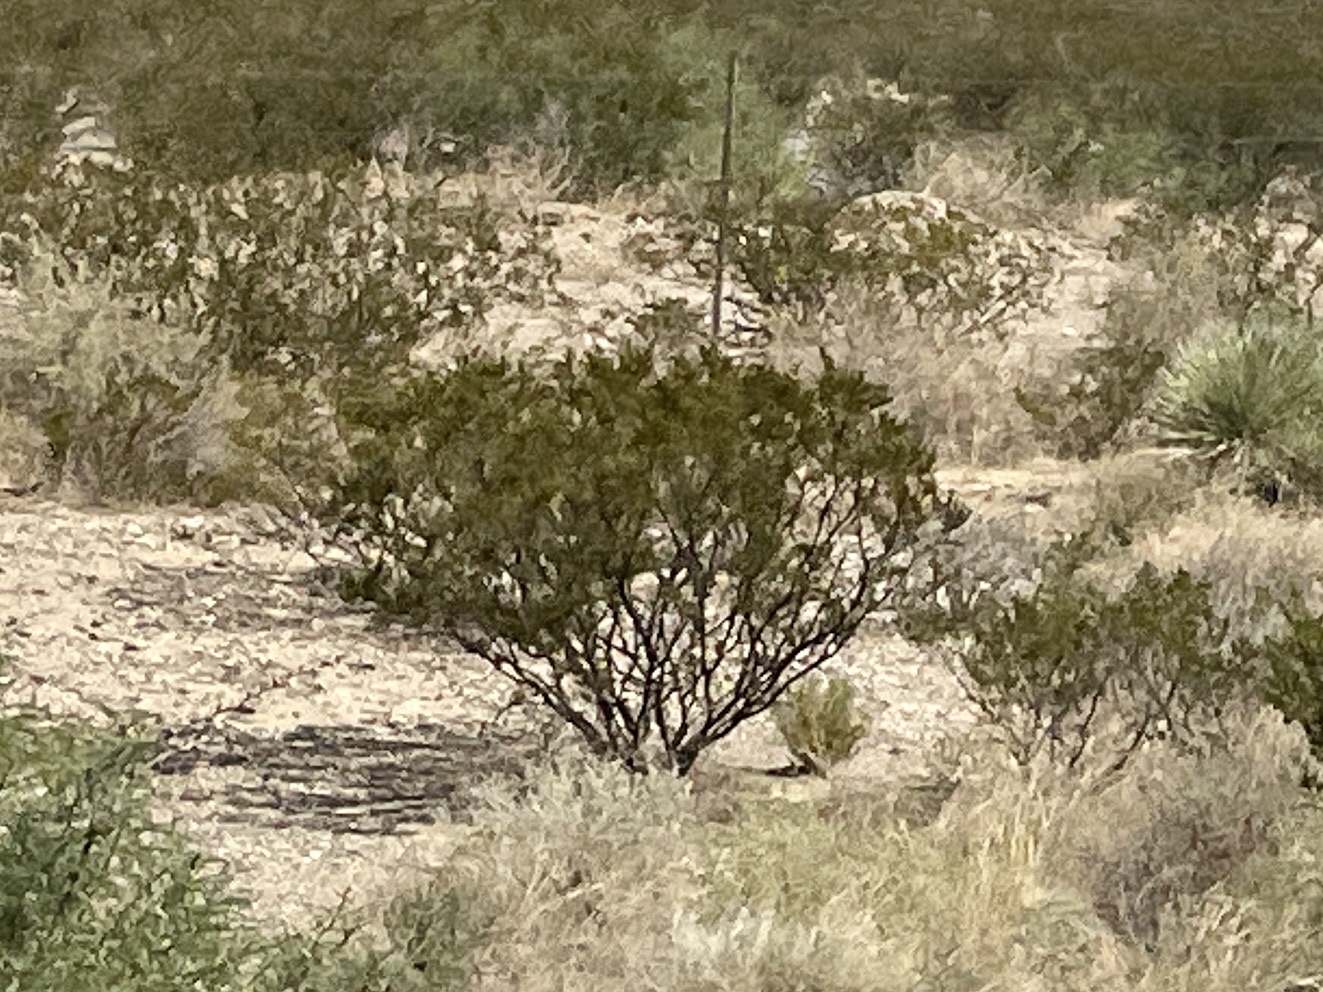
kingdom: Plantae
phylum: Tracheophyta
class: Magnoliopsida
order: Zygophyllales
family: Zygophyllaceae
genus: Larrea
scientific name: Larrea tridentata
